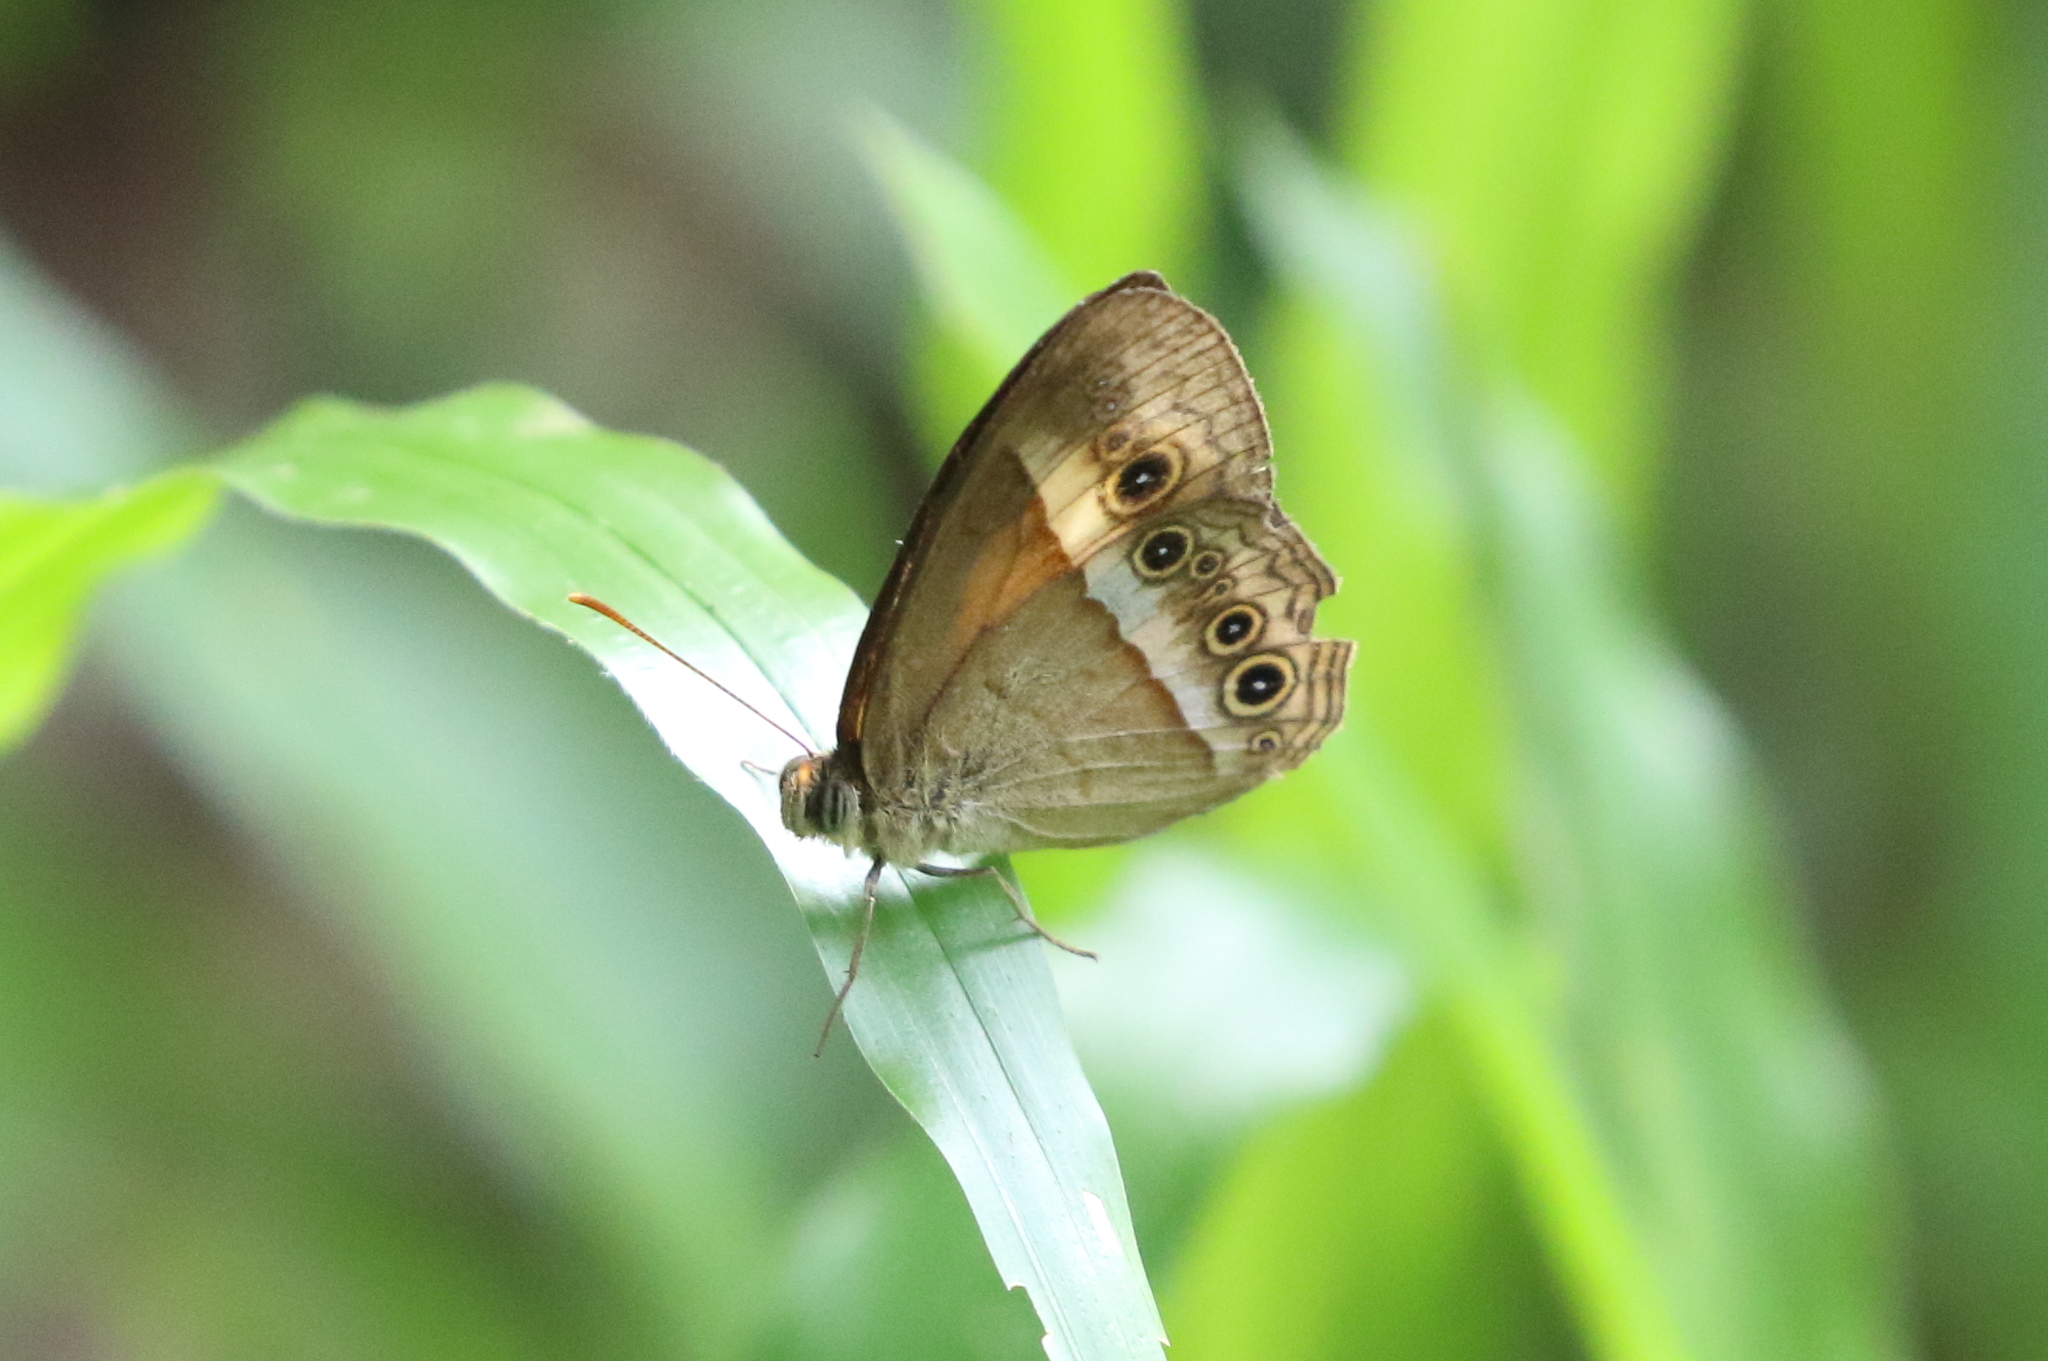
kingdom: Animalia
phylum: Arthropoda
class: Insecta
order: Lepidoptera
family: Nymphalidae
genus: Mycalesis
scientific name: Mycalesis terminus
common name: Orange bushbrown
